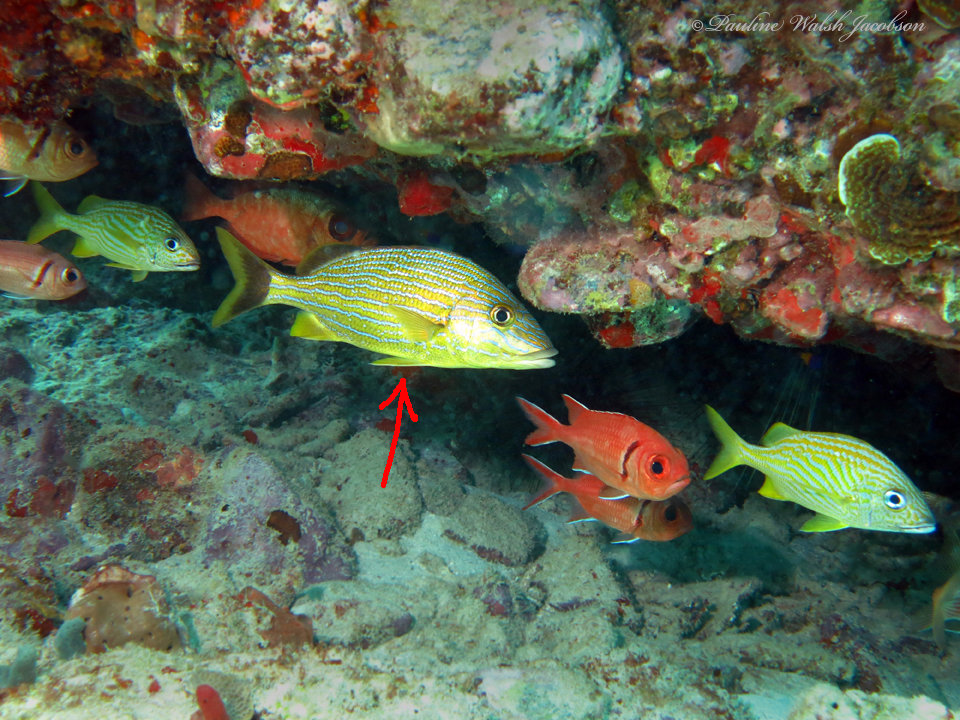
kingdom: Animalia
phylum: Chordata
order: Perciformes
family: Haemulidae
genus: Haemulon
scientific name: Haemulon sciurus
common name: Bluestriped grunt
